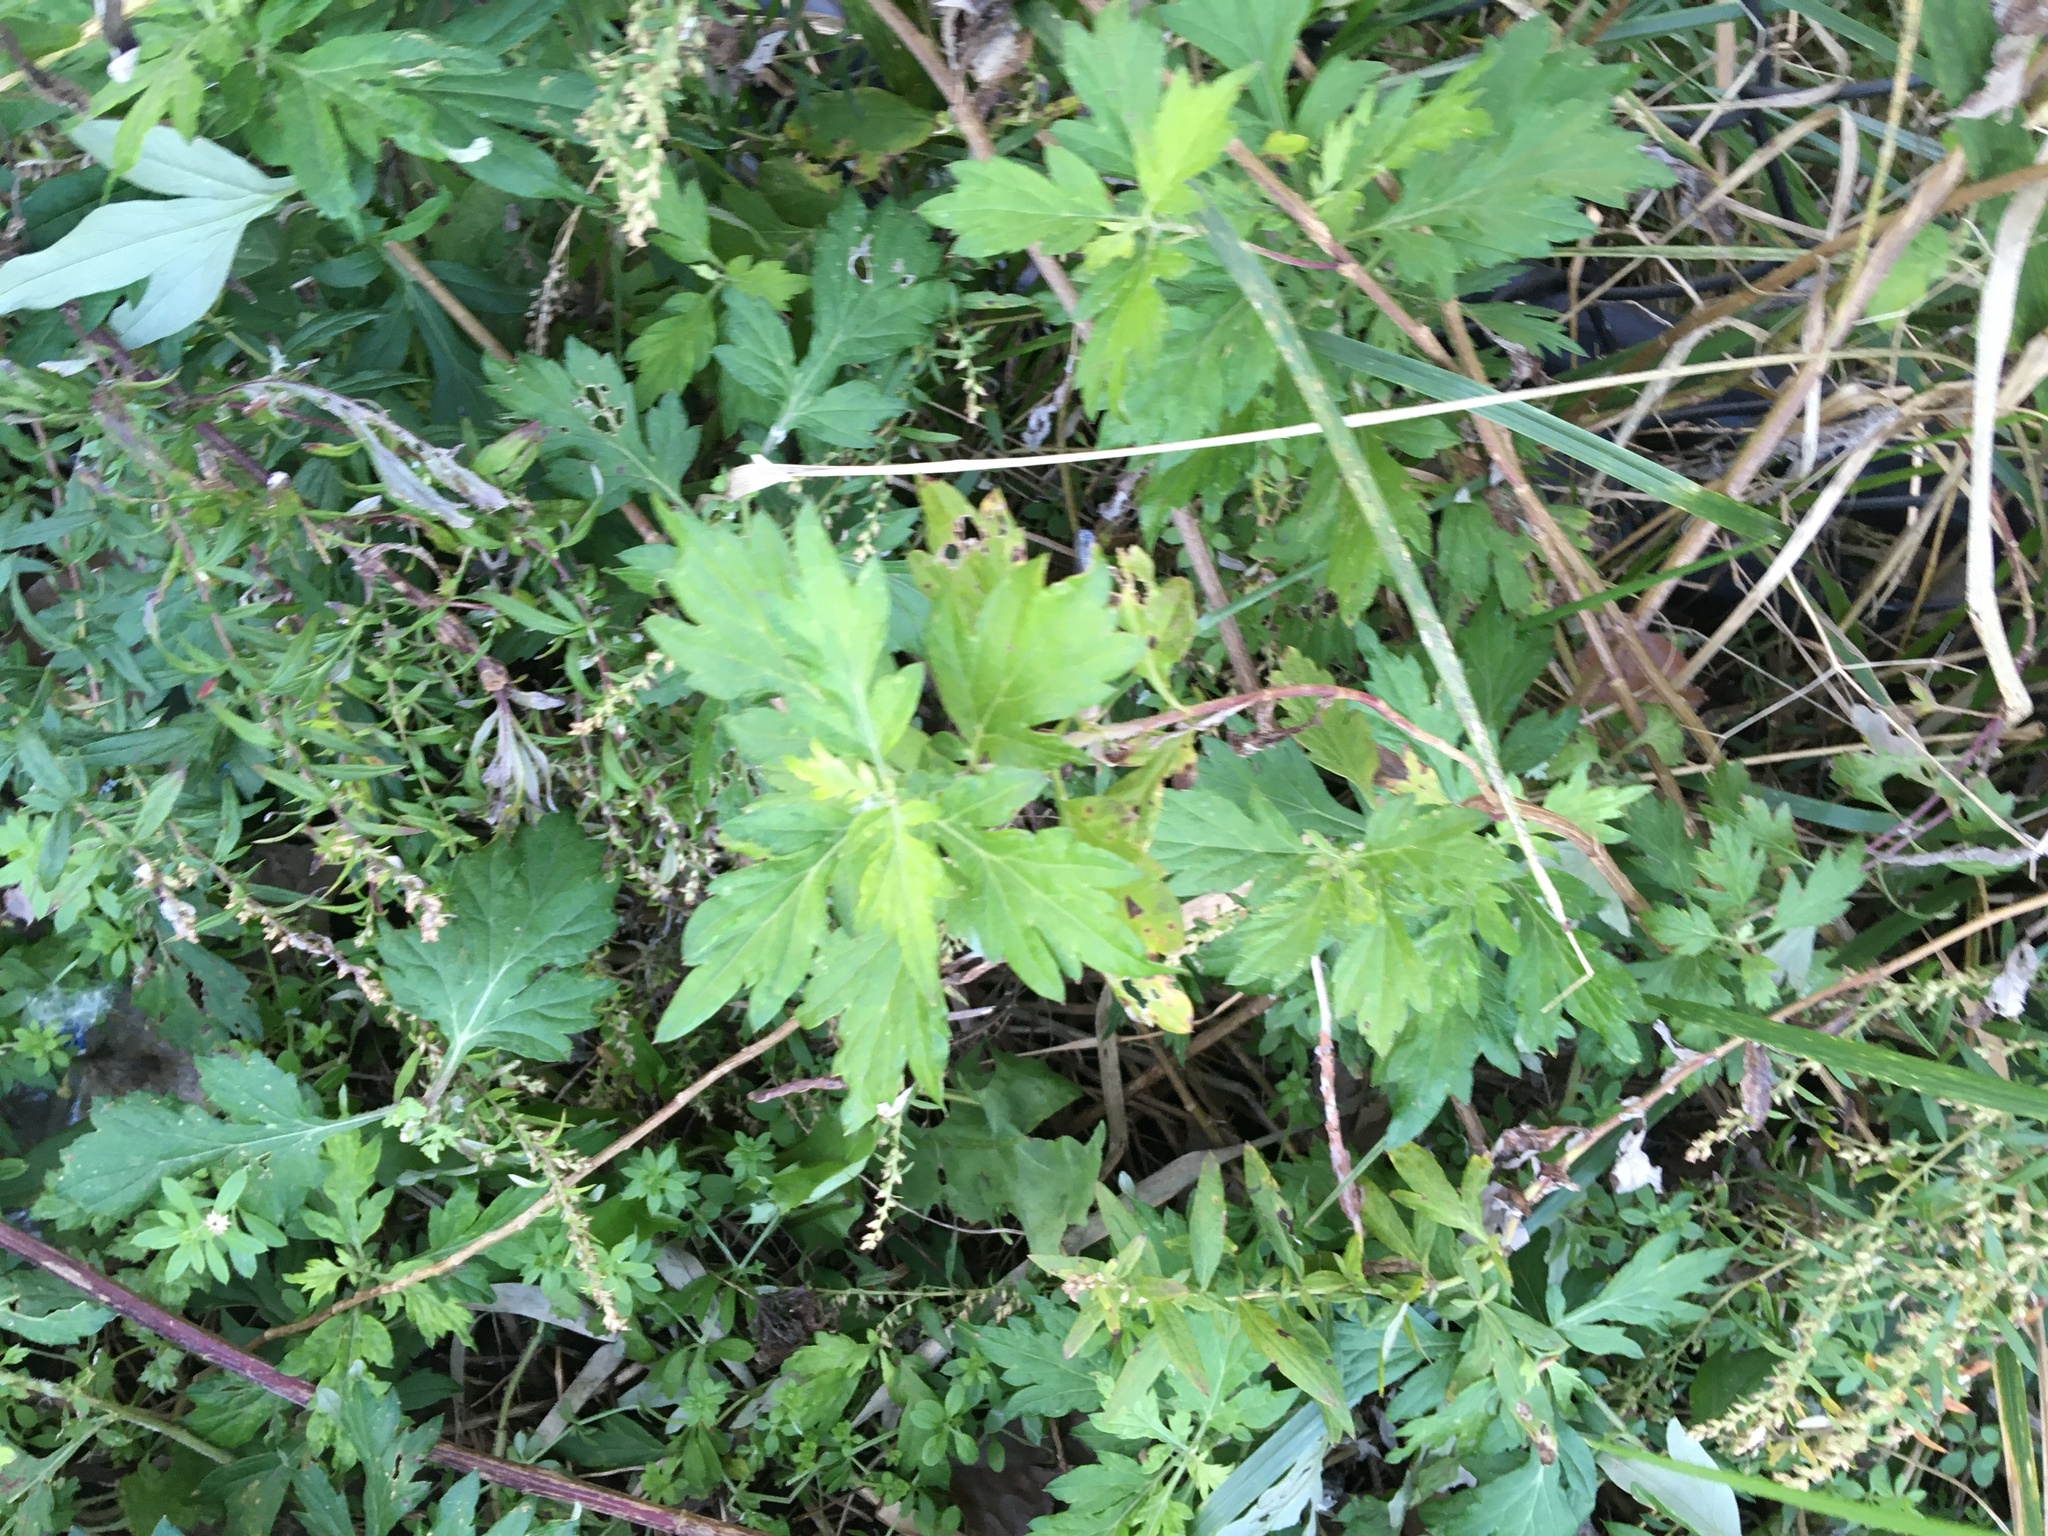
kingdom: Plantae
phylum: Tracheophyta
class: Magnoliopsida
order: Asterales
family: Asteraceae
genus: Artemisia
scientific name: Artemisia vulgaris
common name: Mugwort
